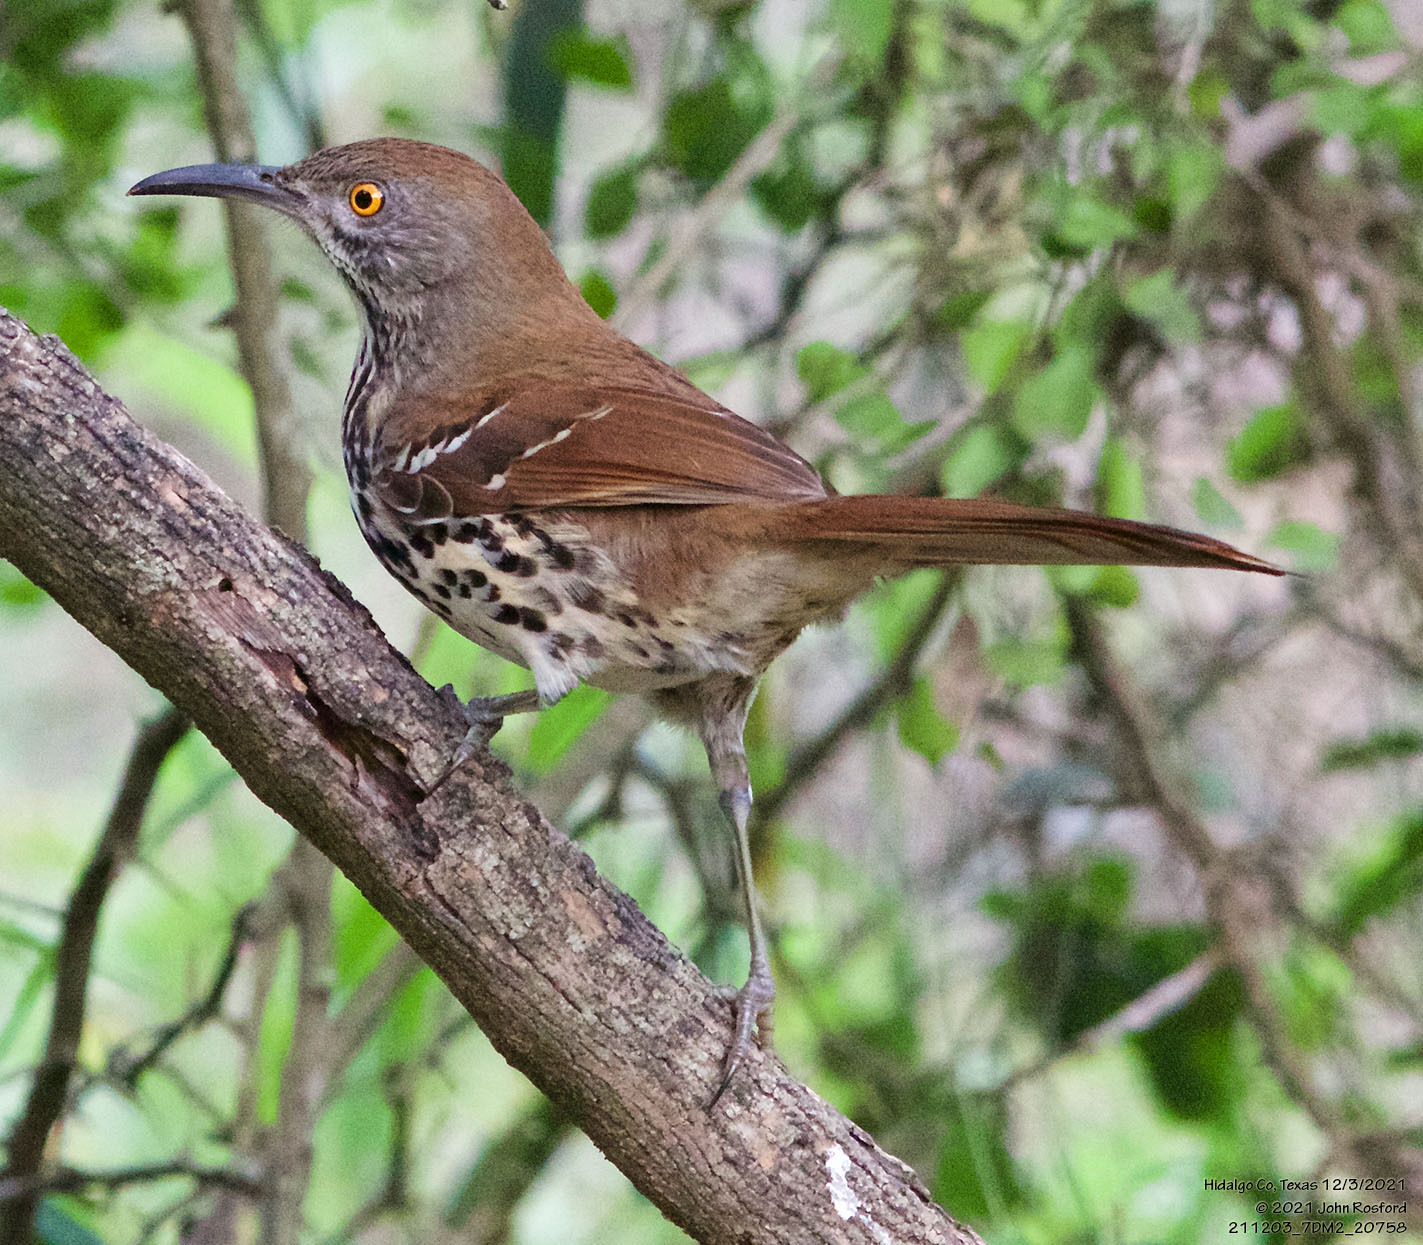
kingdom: Animalia
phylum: Chordata
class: Aves
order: Passeriformes
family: Mimidae
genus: Toxostoma
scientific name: Toxostoma longirostre
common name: Long-billed thrasher
